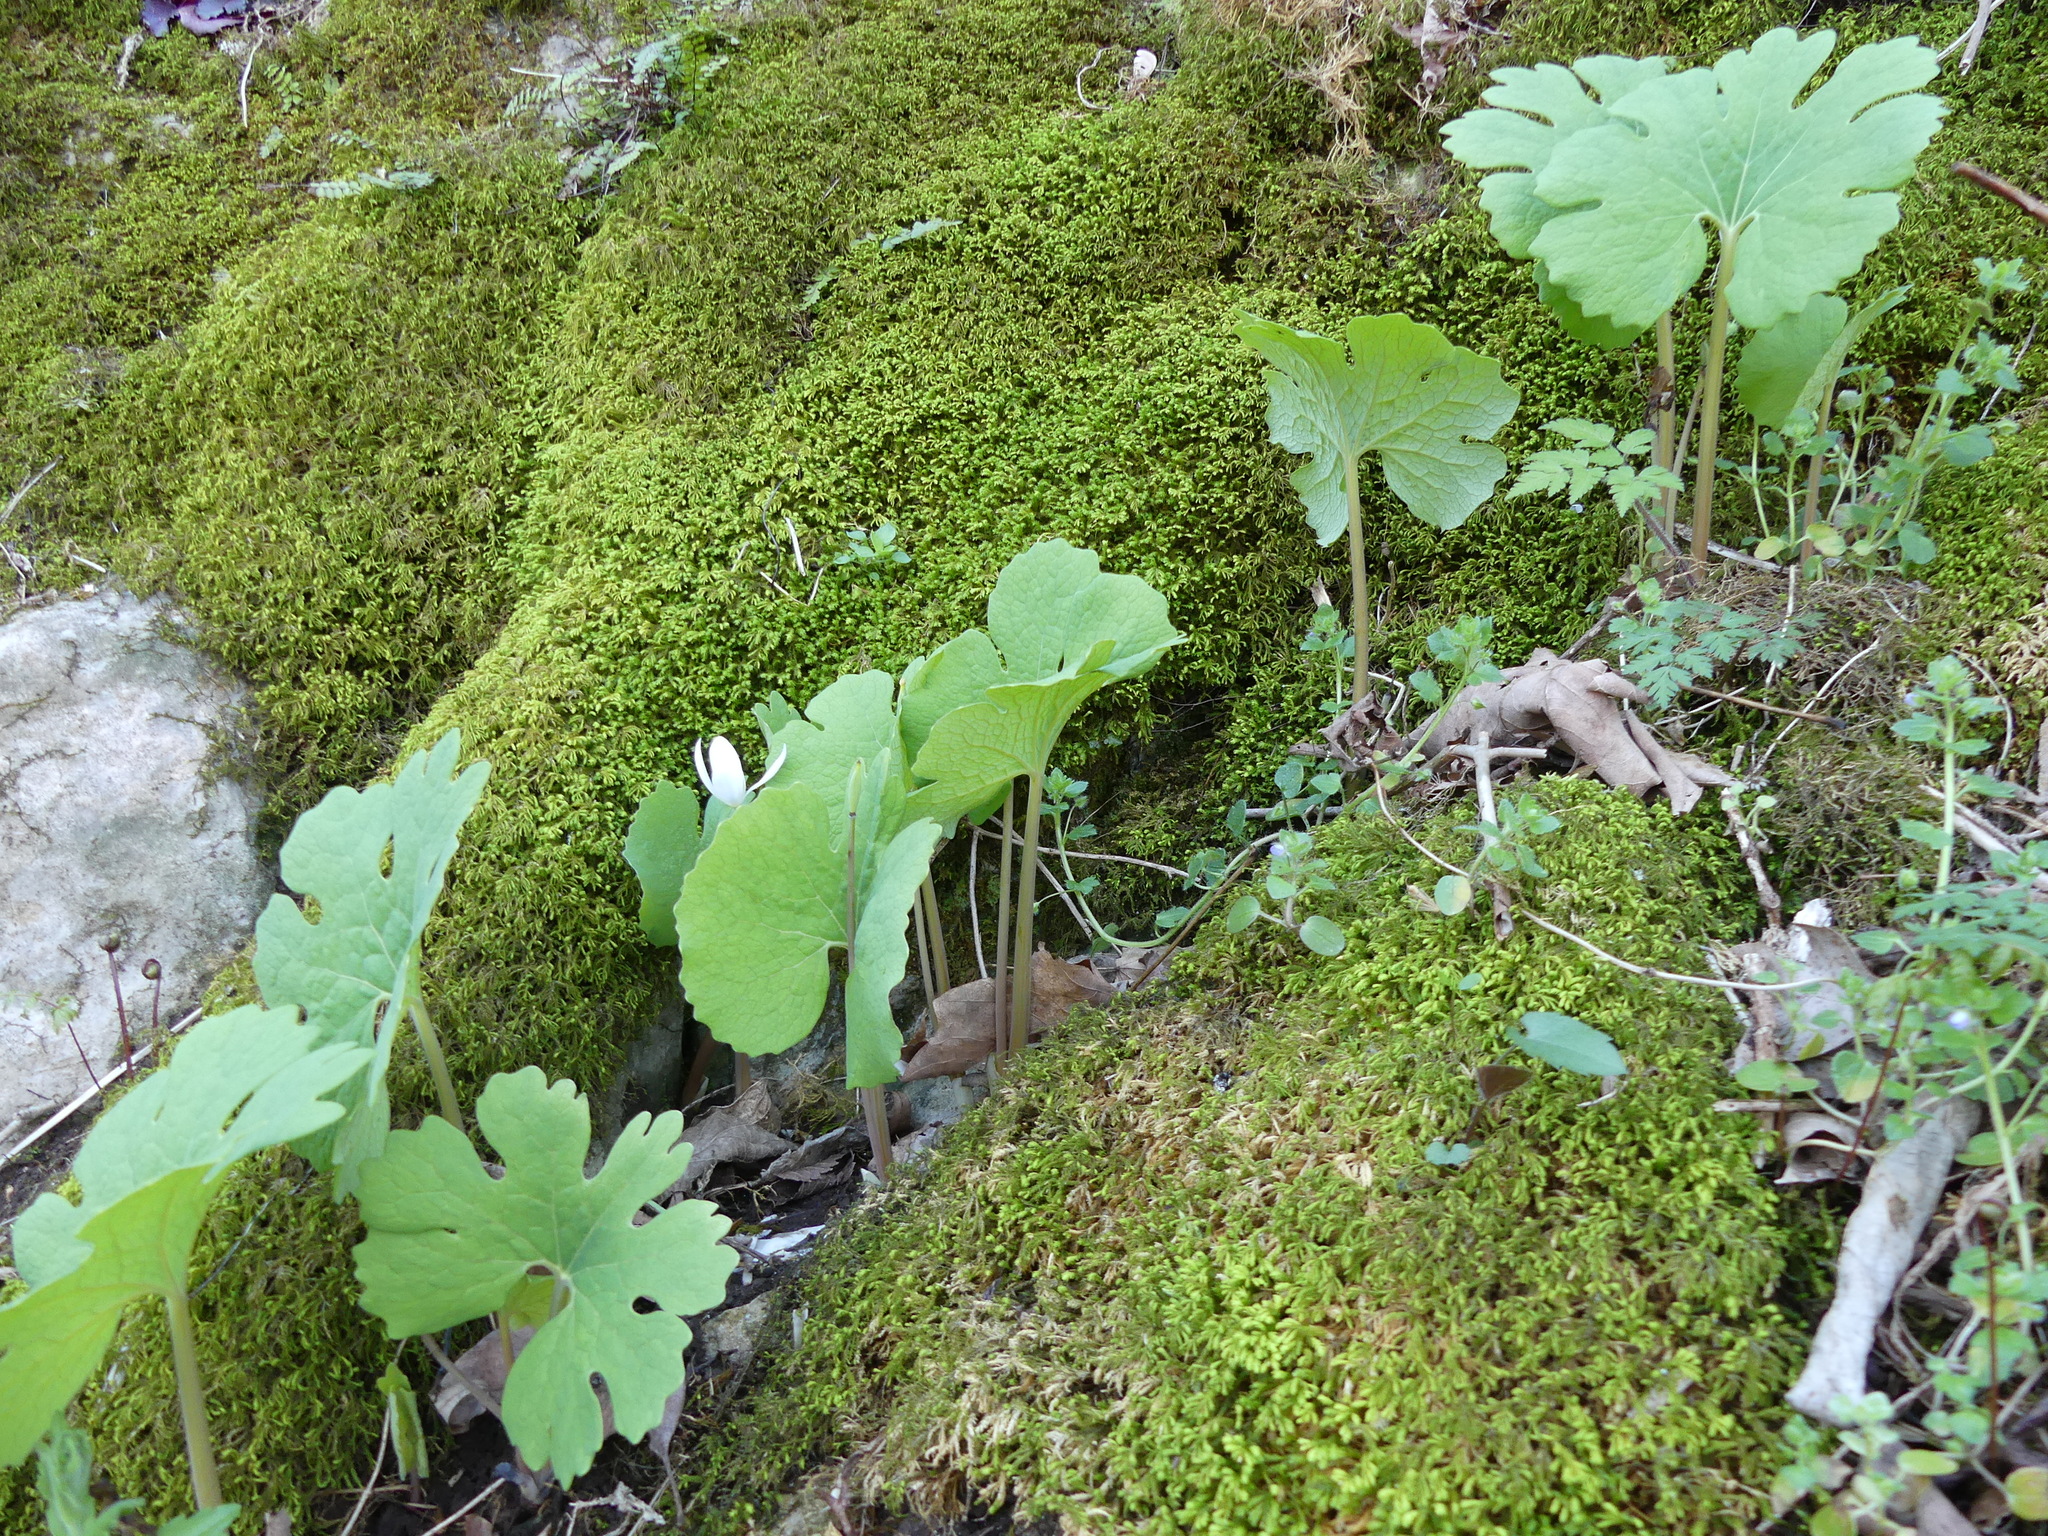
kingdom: Plantae
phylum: Tracheophyta
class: Magnoliopsida
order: Ranunculales
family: Papaveraceae
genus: Sanguinaria
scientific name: Sanguinaria canadensis
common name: Bloodroot
